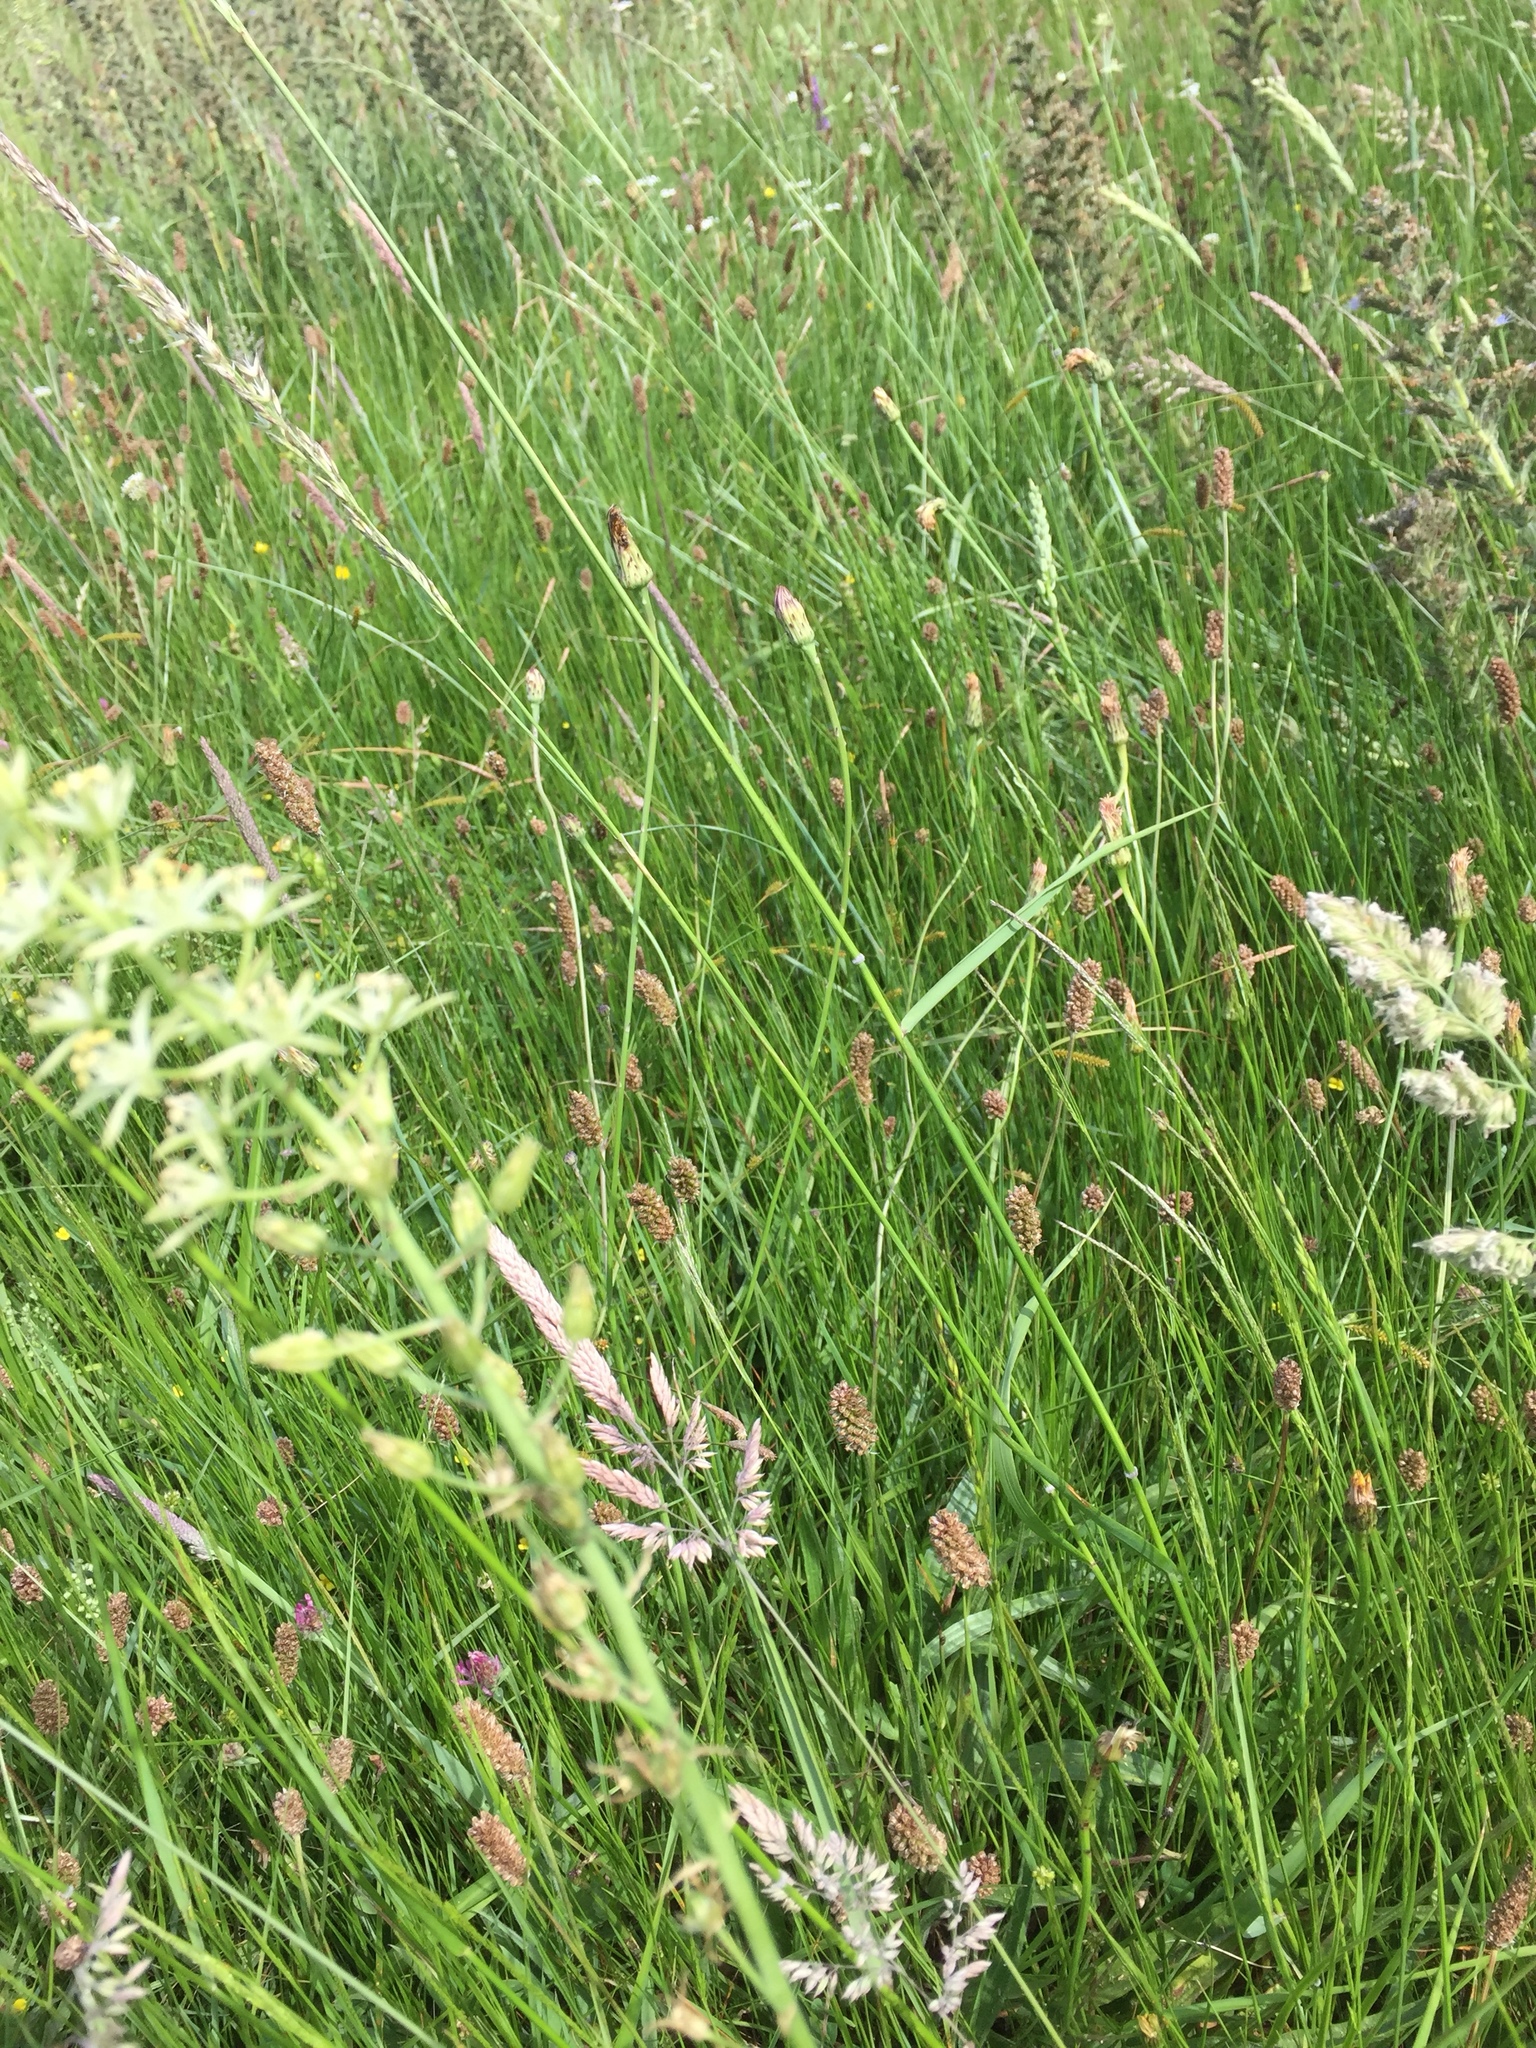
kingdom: Plantae
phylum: Tracheophyta
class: Liliopsida
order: Asparagales
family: Asparagaceae
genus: Ornithogalum
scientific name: Ornithogalum pyrenaicum
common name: Spiked star-of-bethlehem
